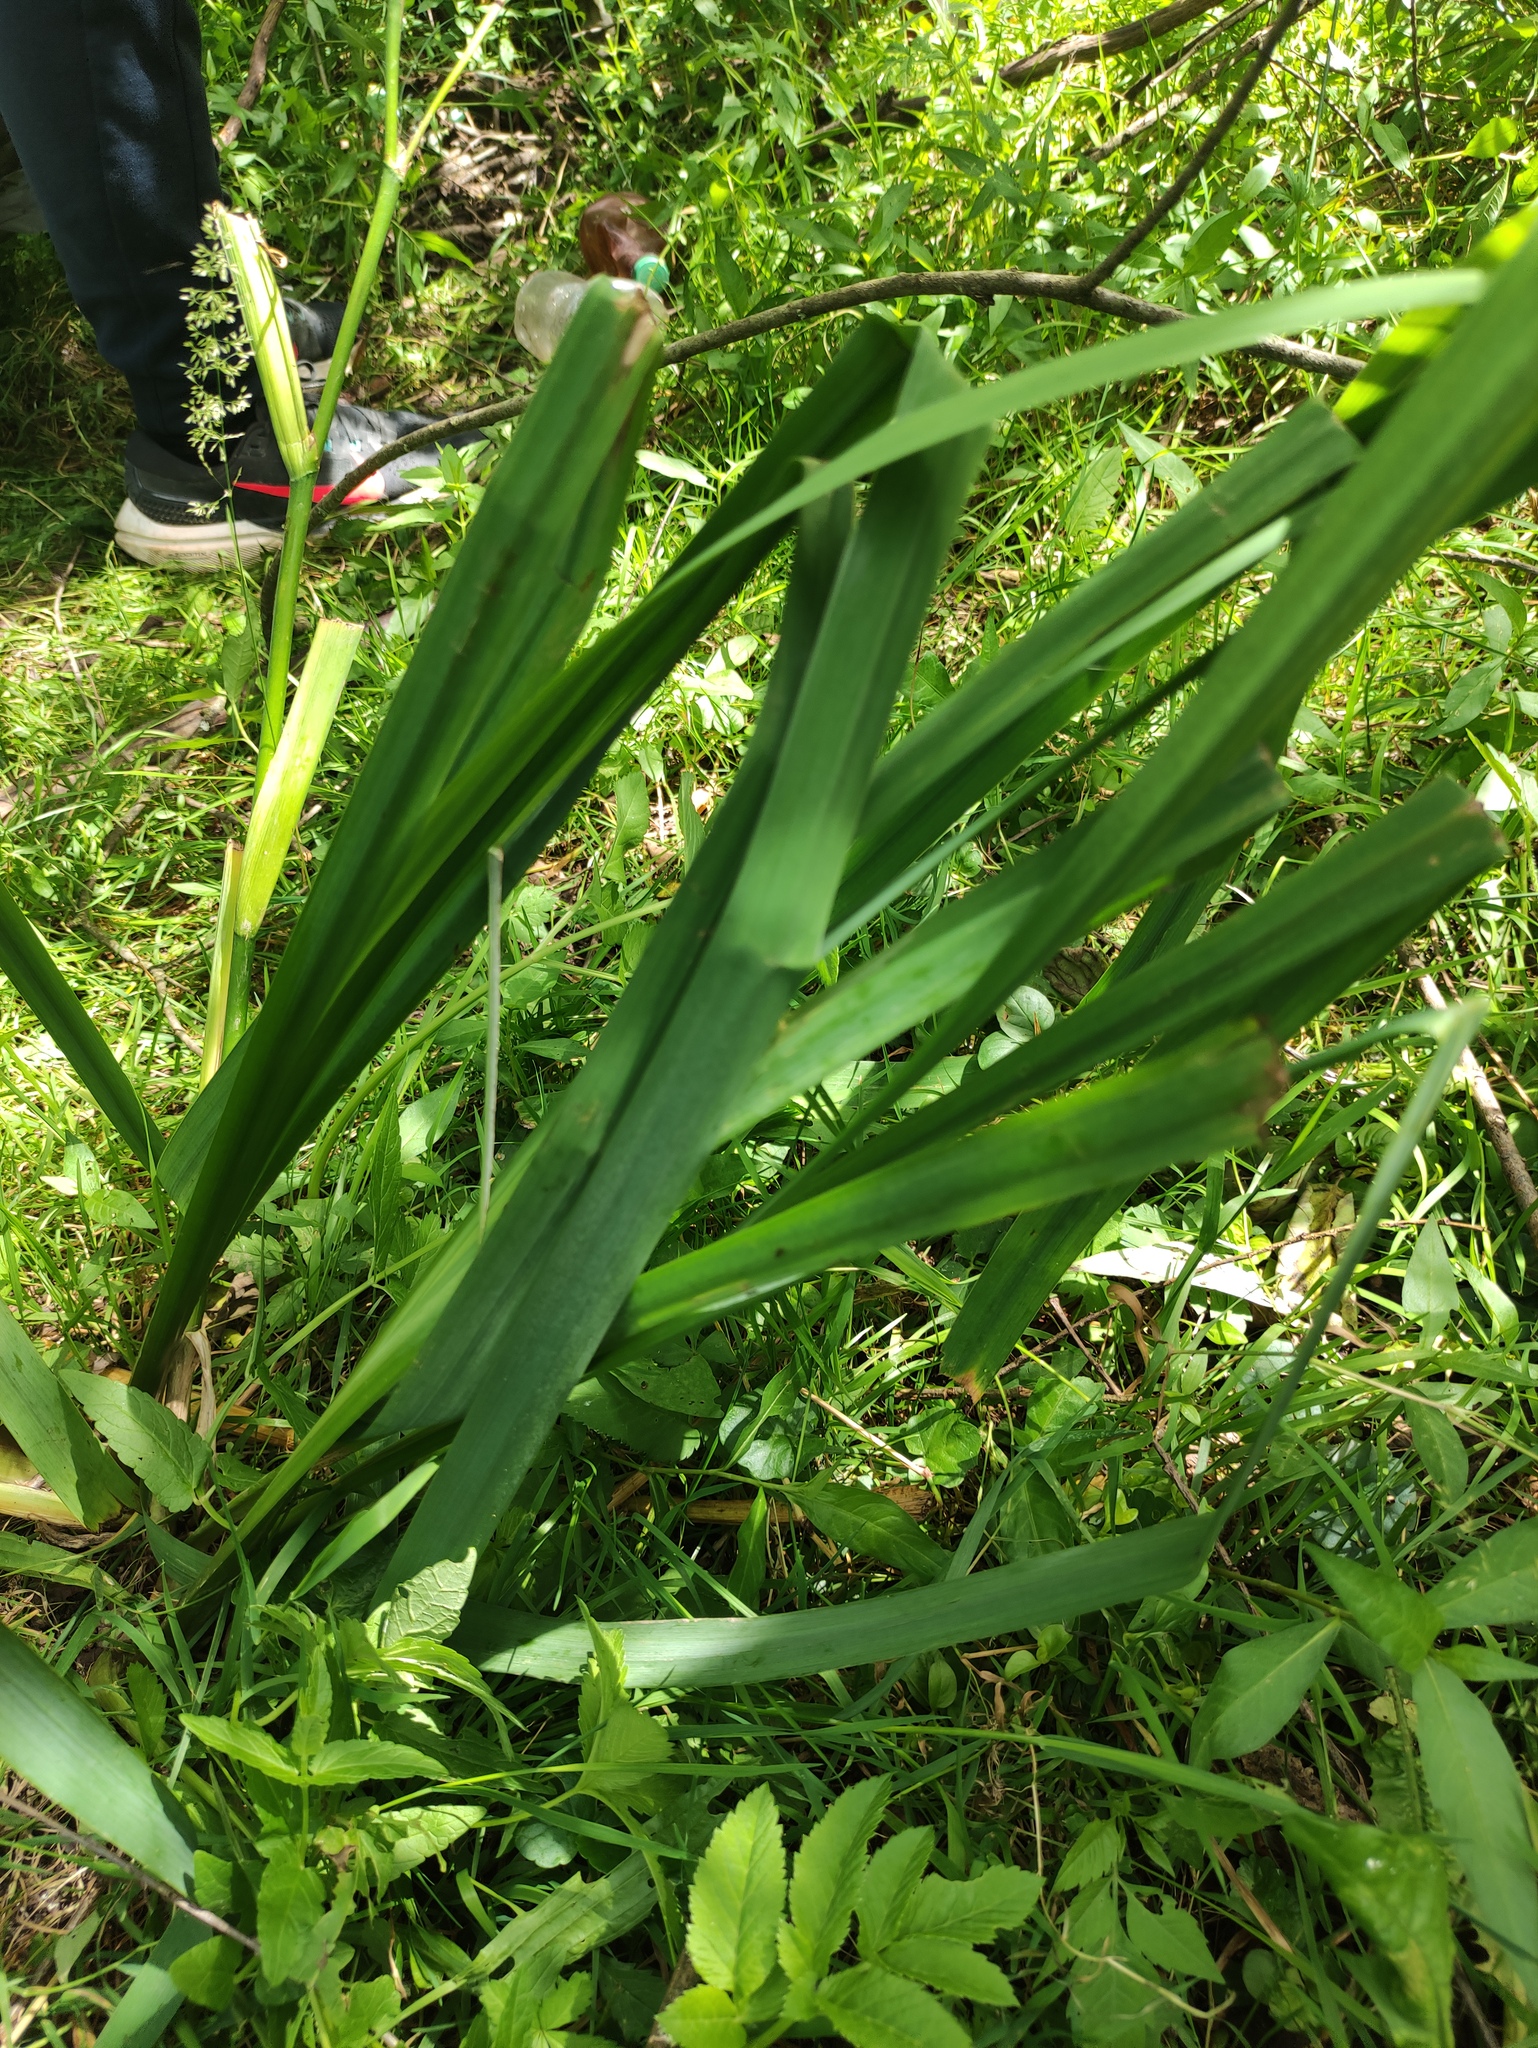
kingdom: Plantae
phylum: Tracheophyta
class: Liliopsida
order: Asparagales
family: Iridaceae
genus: Iris
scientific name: Iris pseudacorus
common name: Yellow flag
